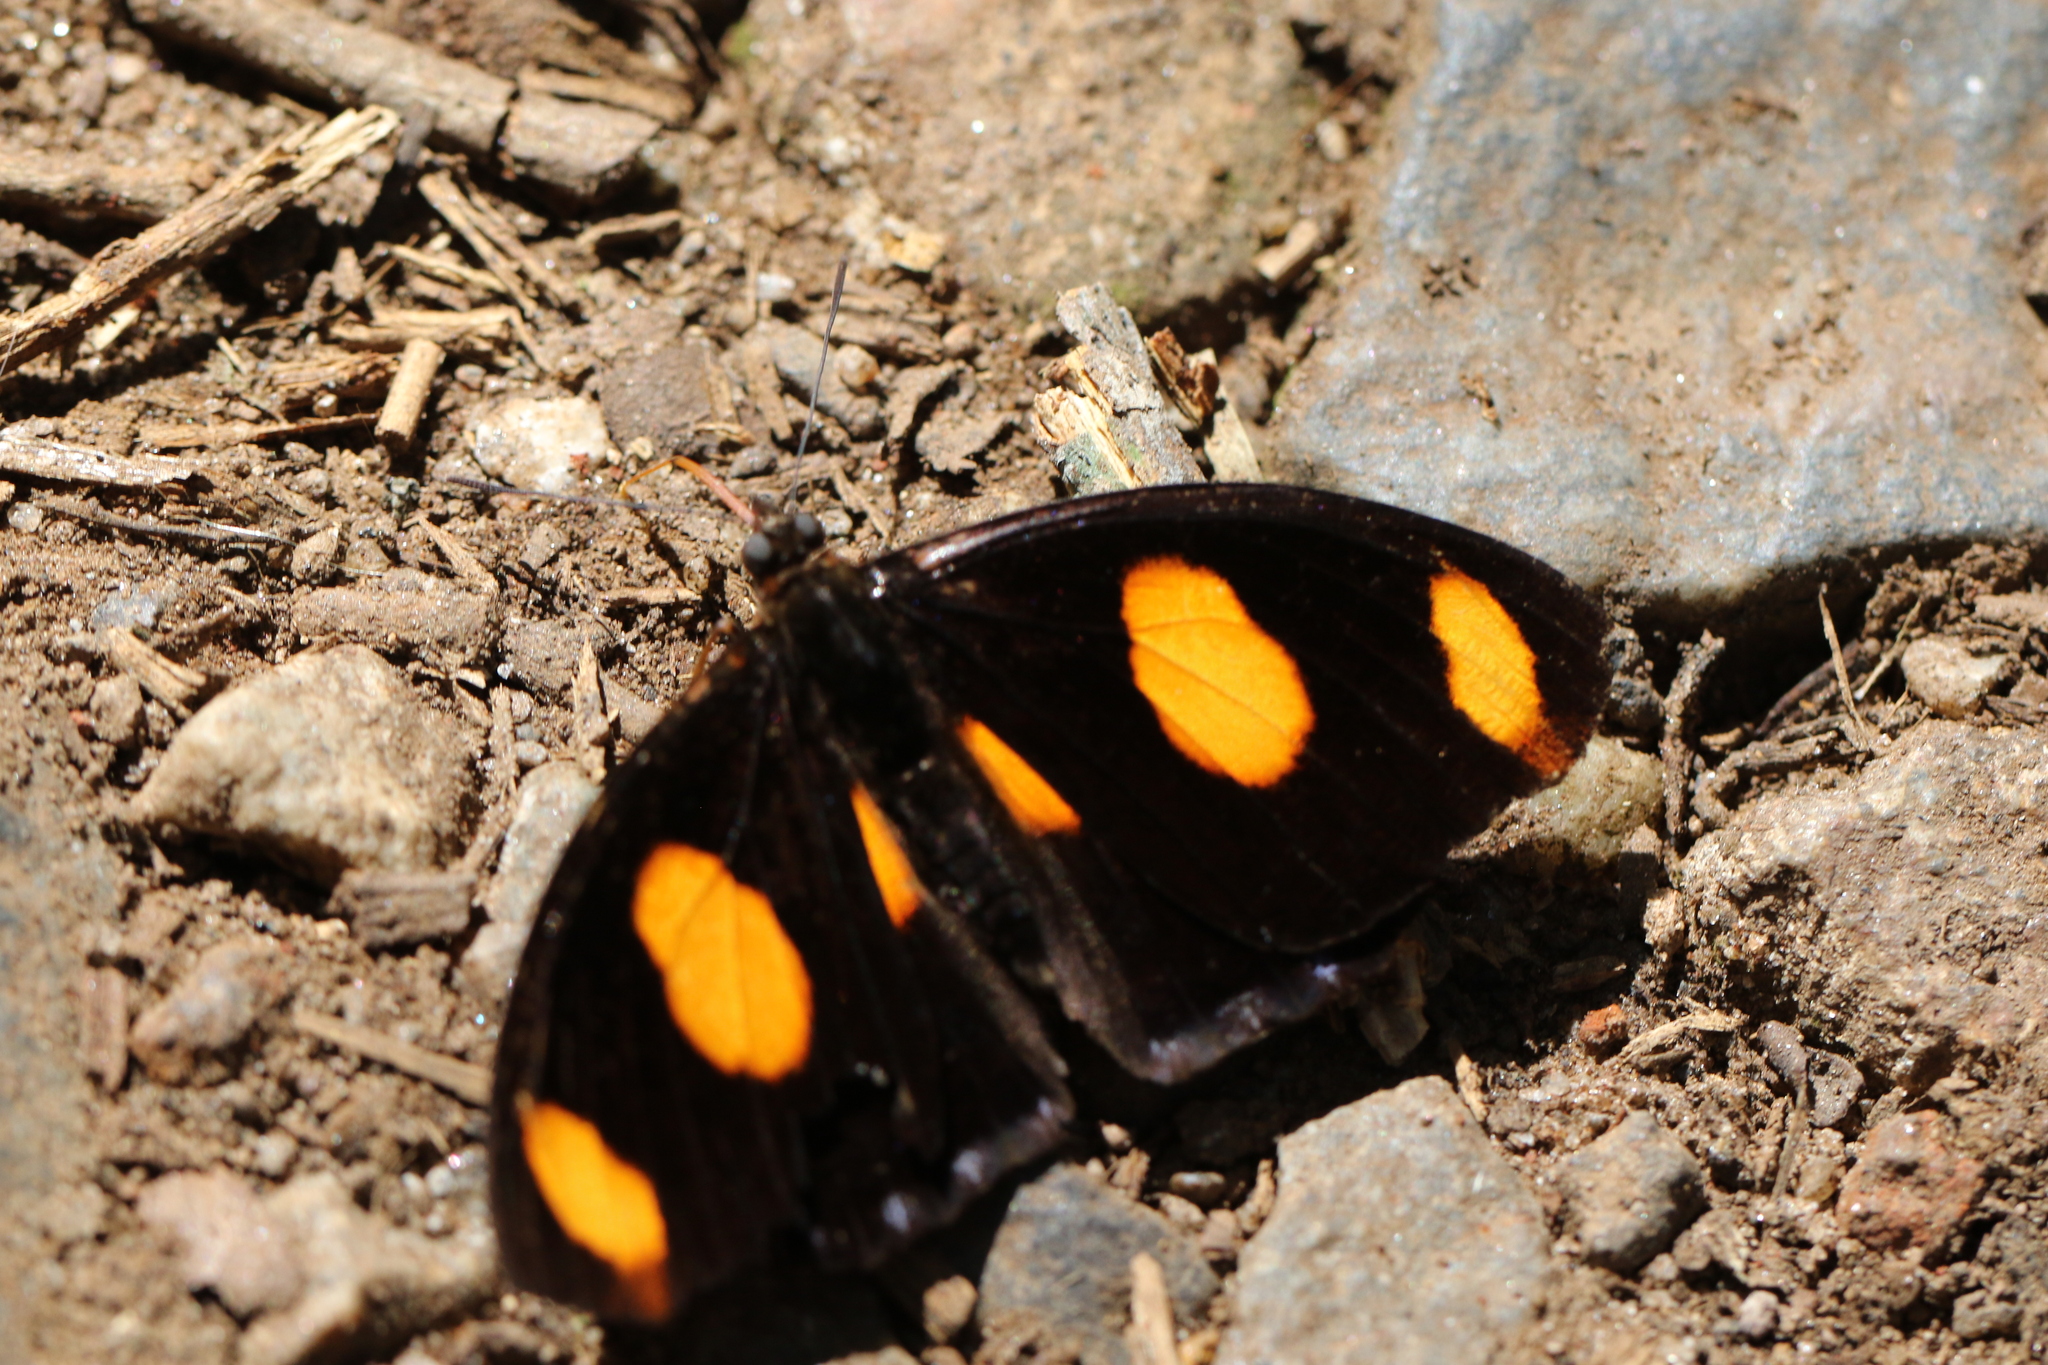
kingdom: Animalia
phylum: Arthropoda
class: Insecta
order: Lepidoptera
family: Nymphalidae
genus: Catonephele
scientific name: Catonephele numilia
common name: Blue-frosted banner
